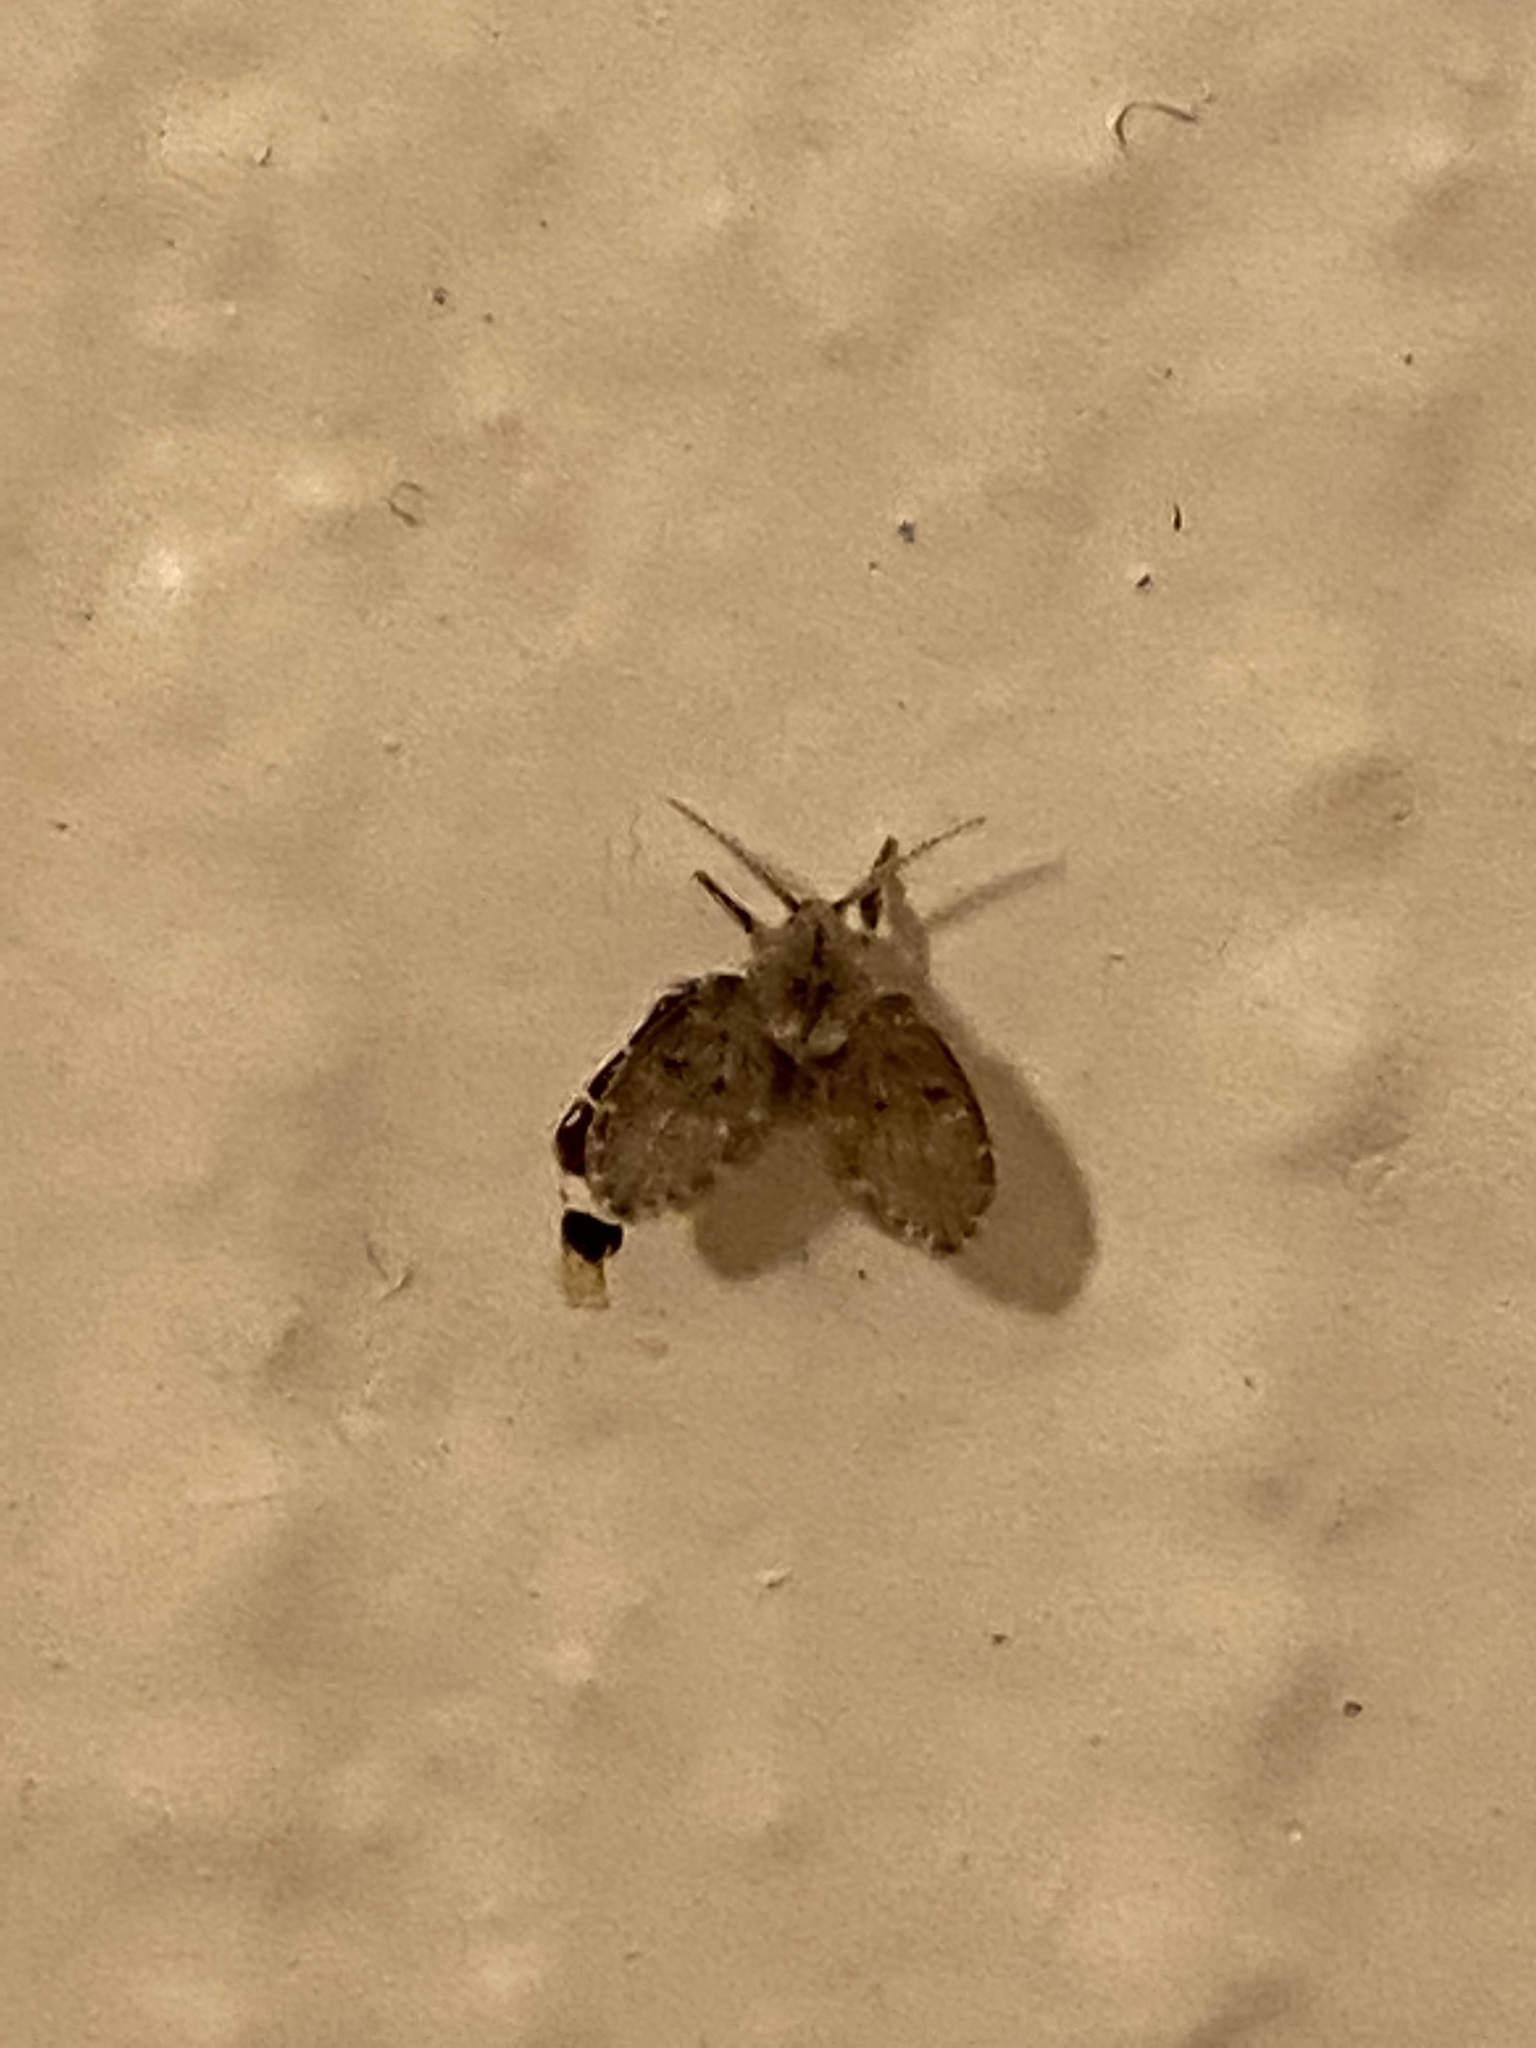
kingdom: Animalia
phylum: Arthropoda
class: Insecta
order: Diptera
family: Psychodidae
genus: Clogmia
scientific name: Clogmia albipunctatus
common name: White-spotted moth fly
